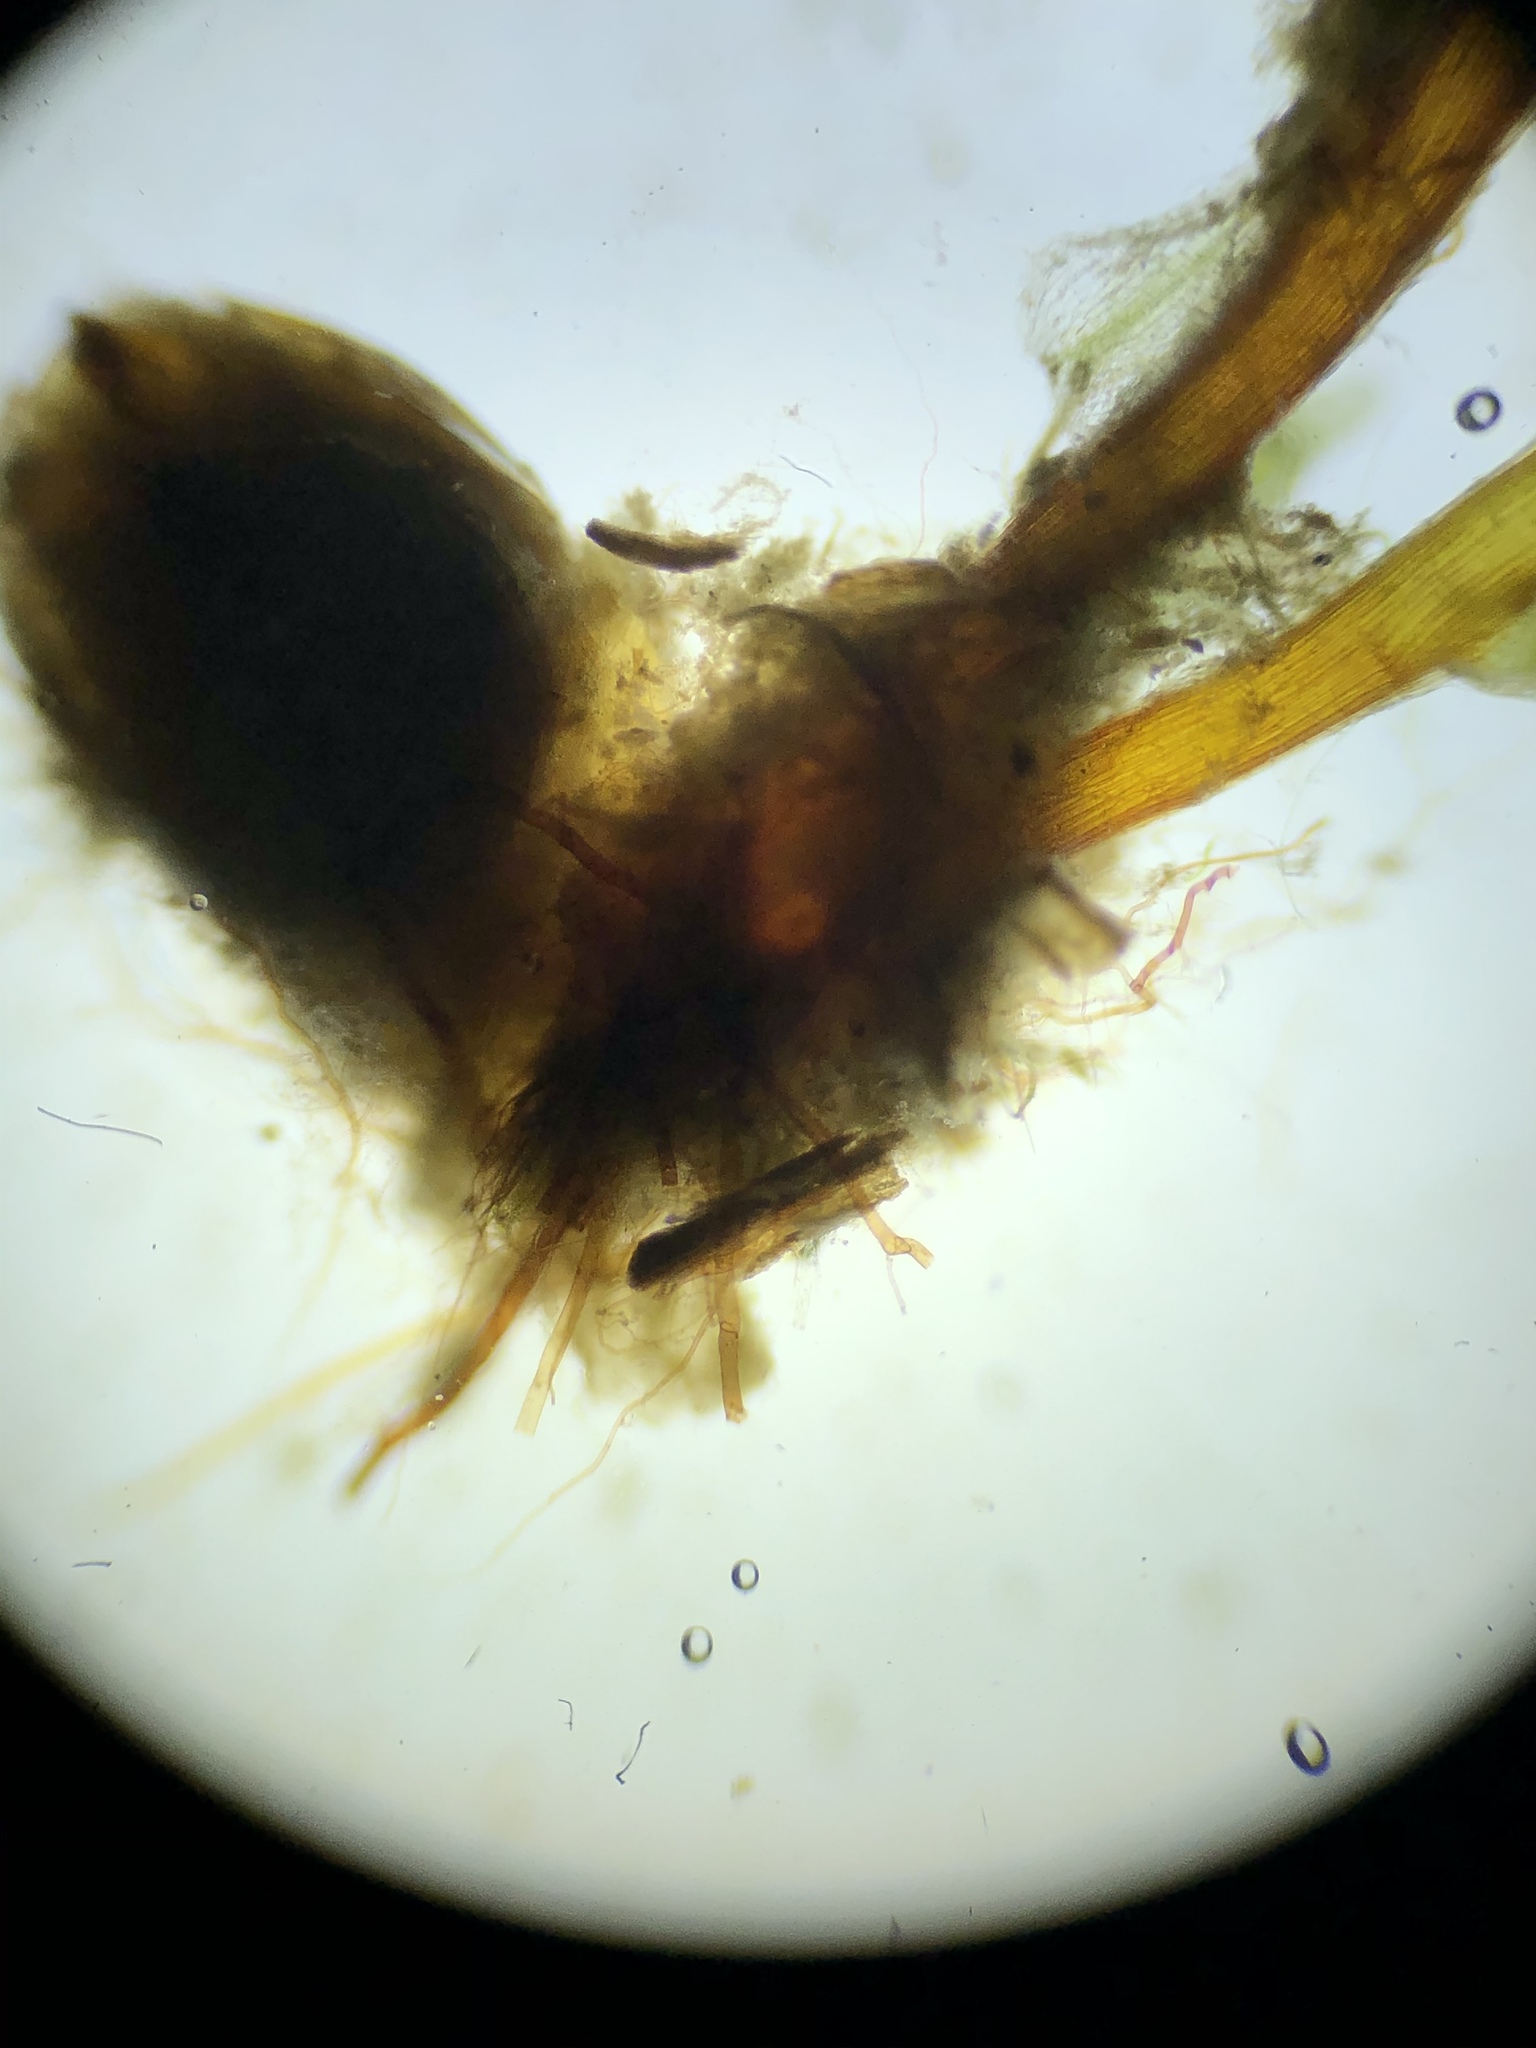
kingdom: Plantae
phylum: Bryophyta
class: Bryopsida
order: Funariales
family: Funariaceae
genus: Funaria
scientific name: Funaria hygrometrica
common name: Common cord moss
